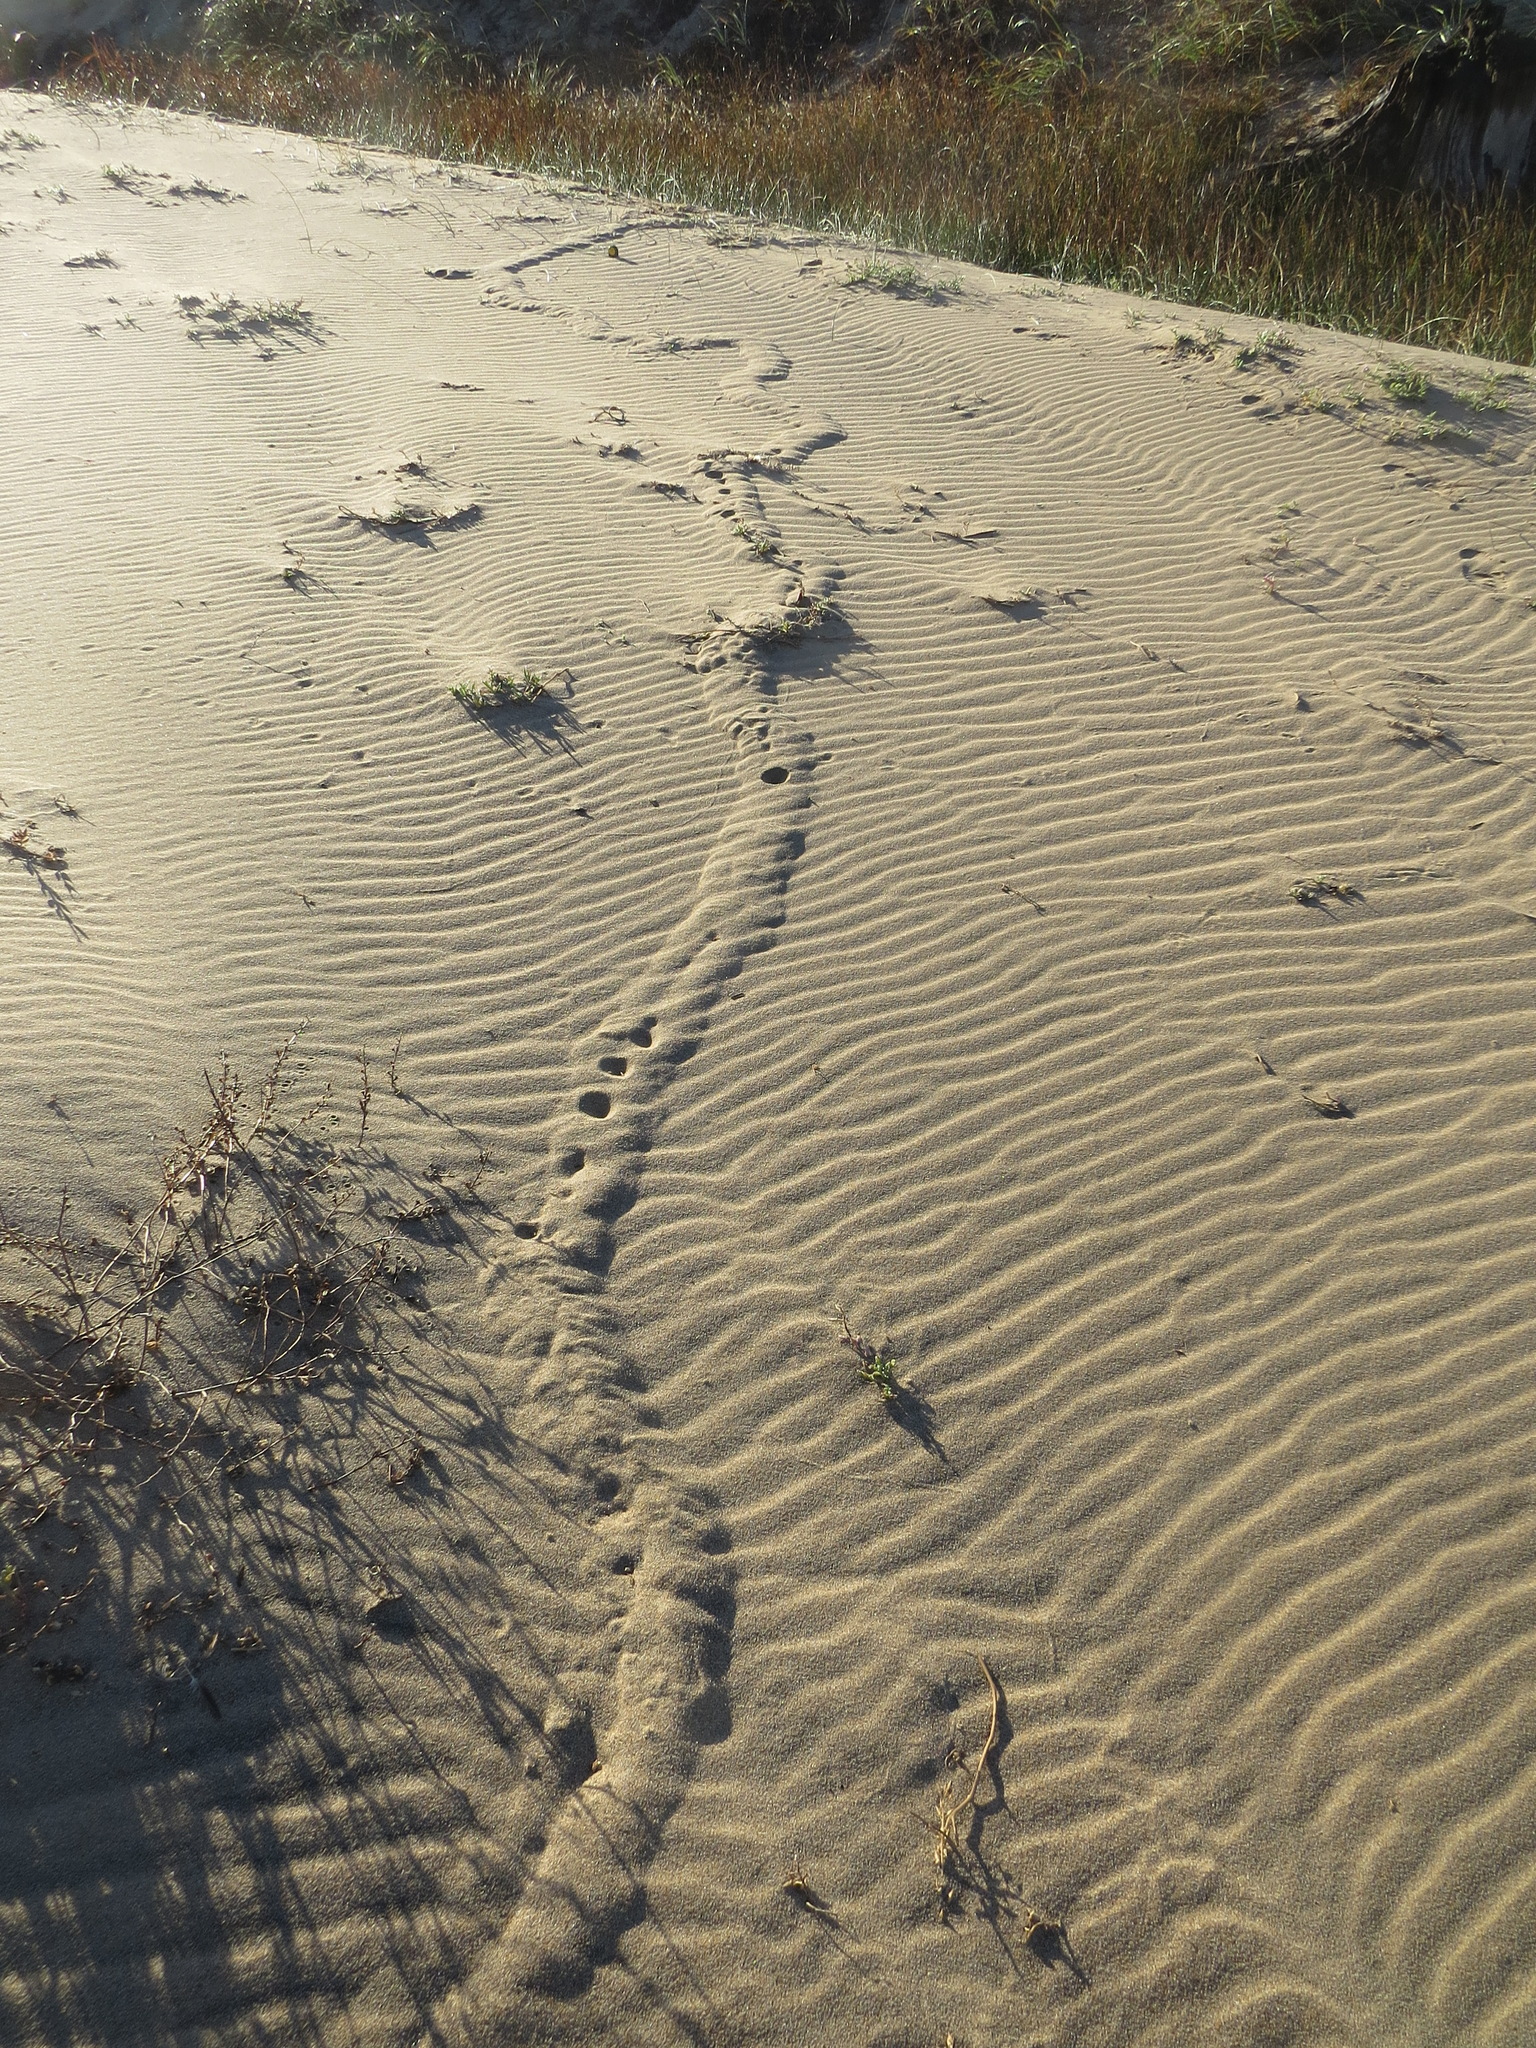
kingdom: Animalia
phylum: Chordata
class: Mammalia
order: Soricomorpha
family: Talpidae
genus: Scapanus
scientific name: Scapanus latimanus
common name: Broad-footed mole
